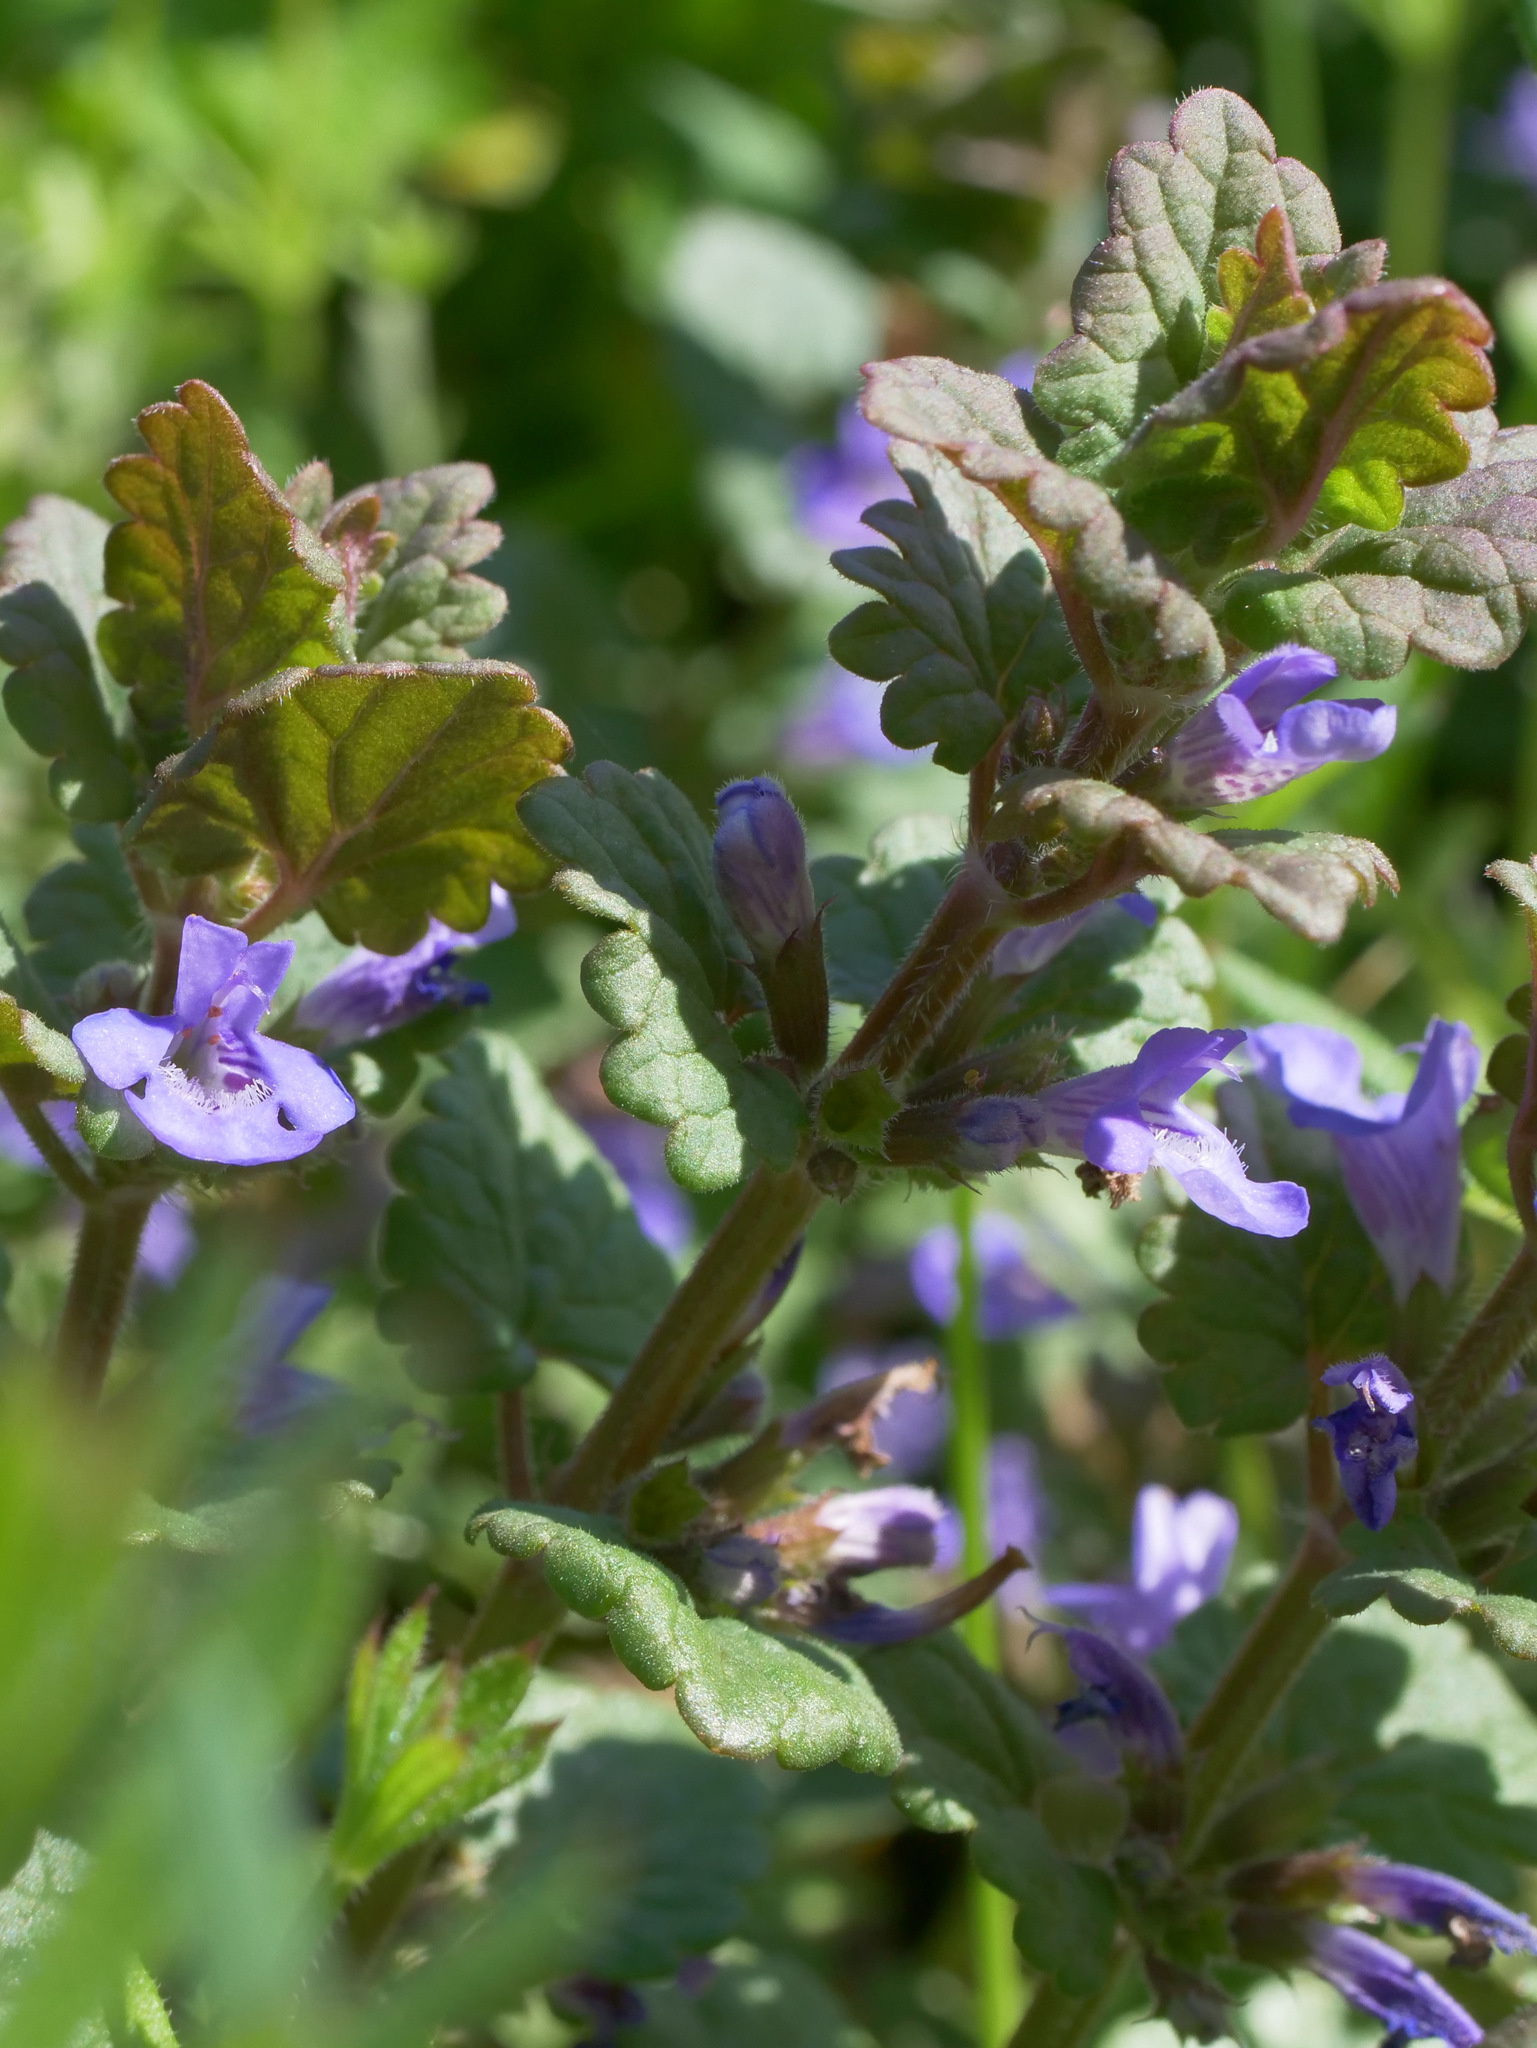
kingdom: Plantae
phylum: Tracheophyta
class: Magnoliopsida
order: Lamiales
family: Lamiaceae
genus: Glechoma
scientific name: Glechoma hederacea
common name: Ground ivy
